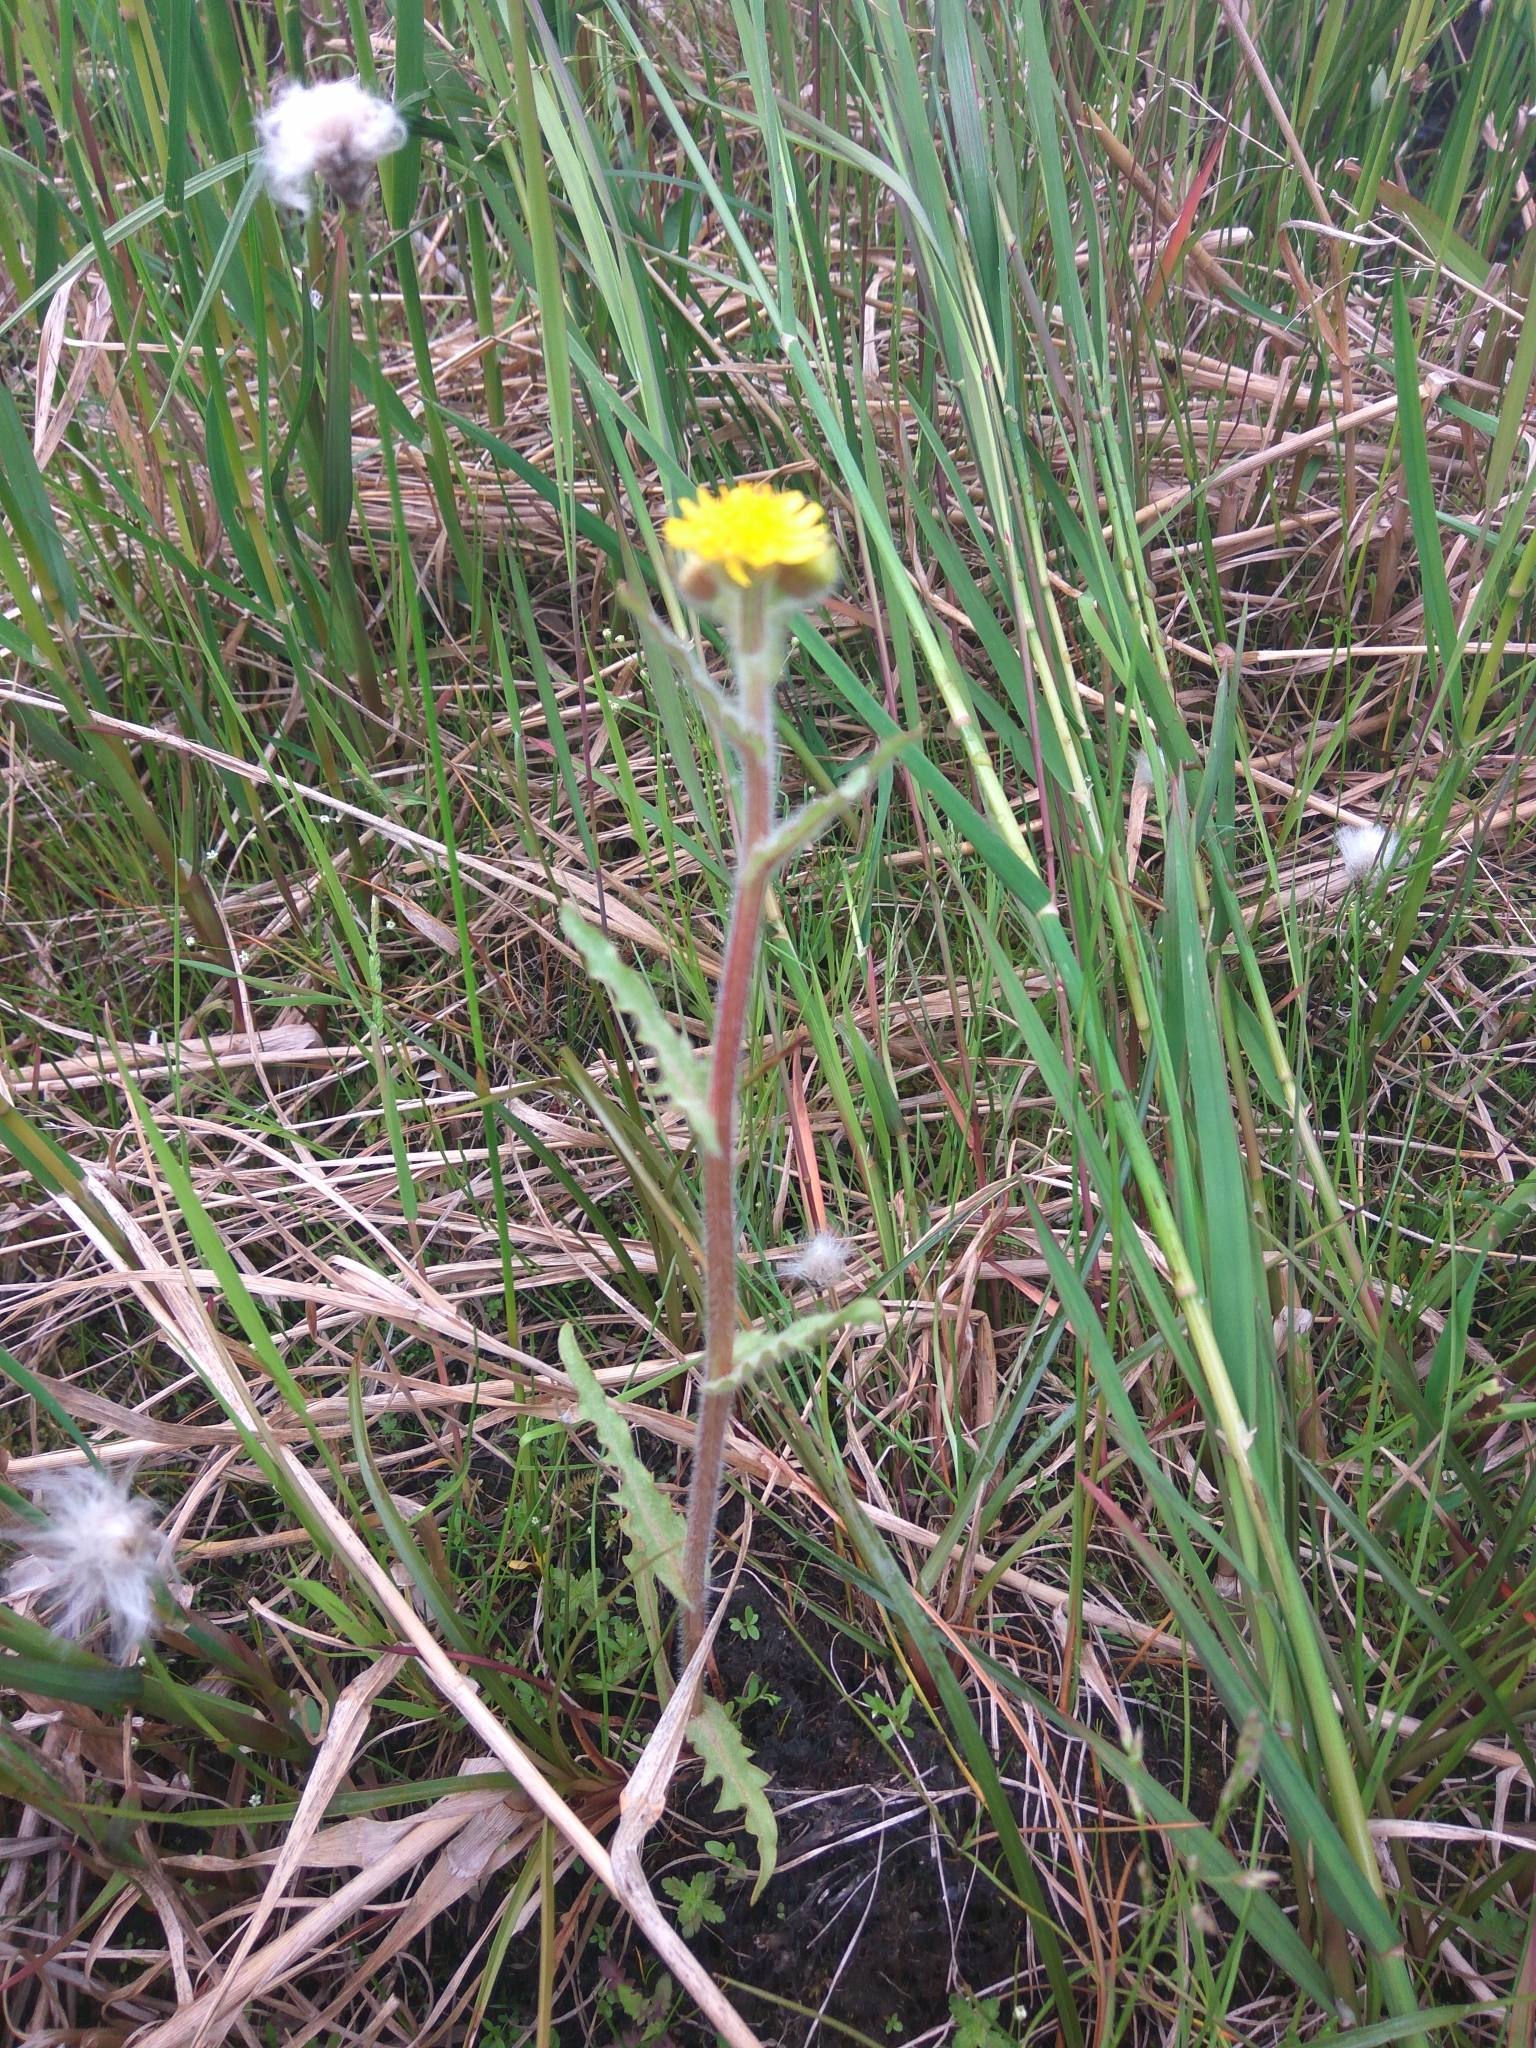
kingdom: Plantae
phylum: Tracheophyta
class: Magnoliopsida
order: Asterales
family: Asteraceae
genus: Tephroseris
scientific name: Tephroseris palustris
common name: Marsh fleawort
